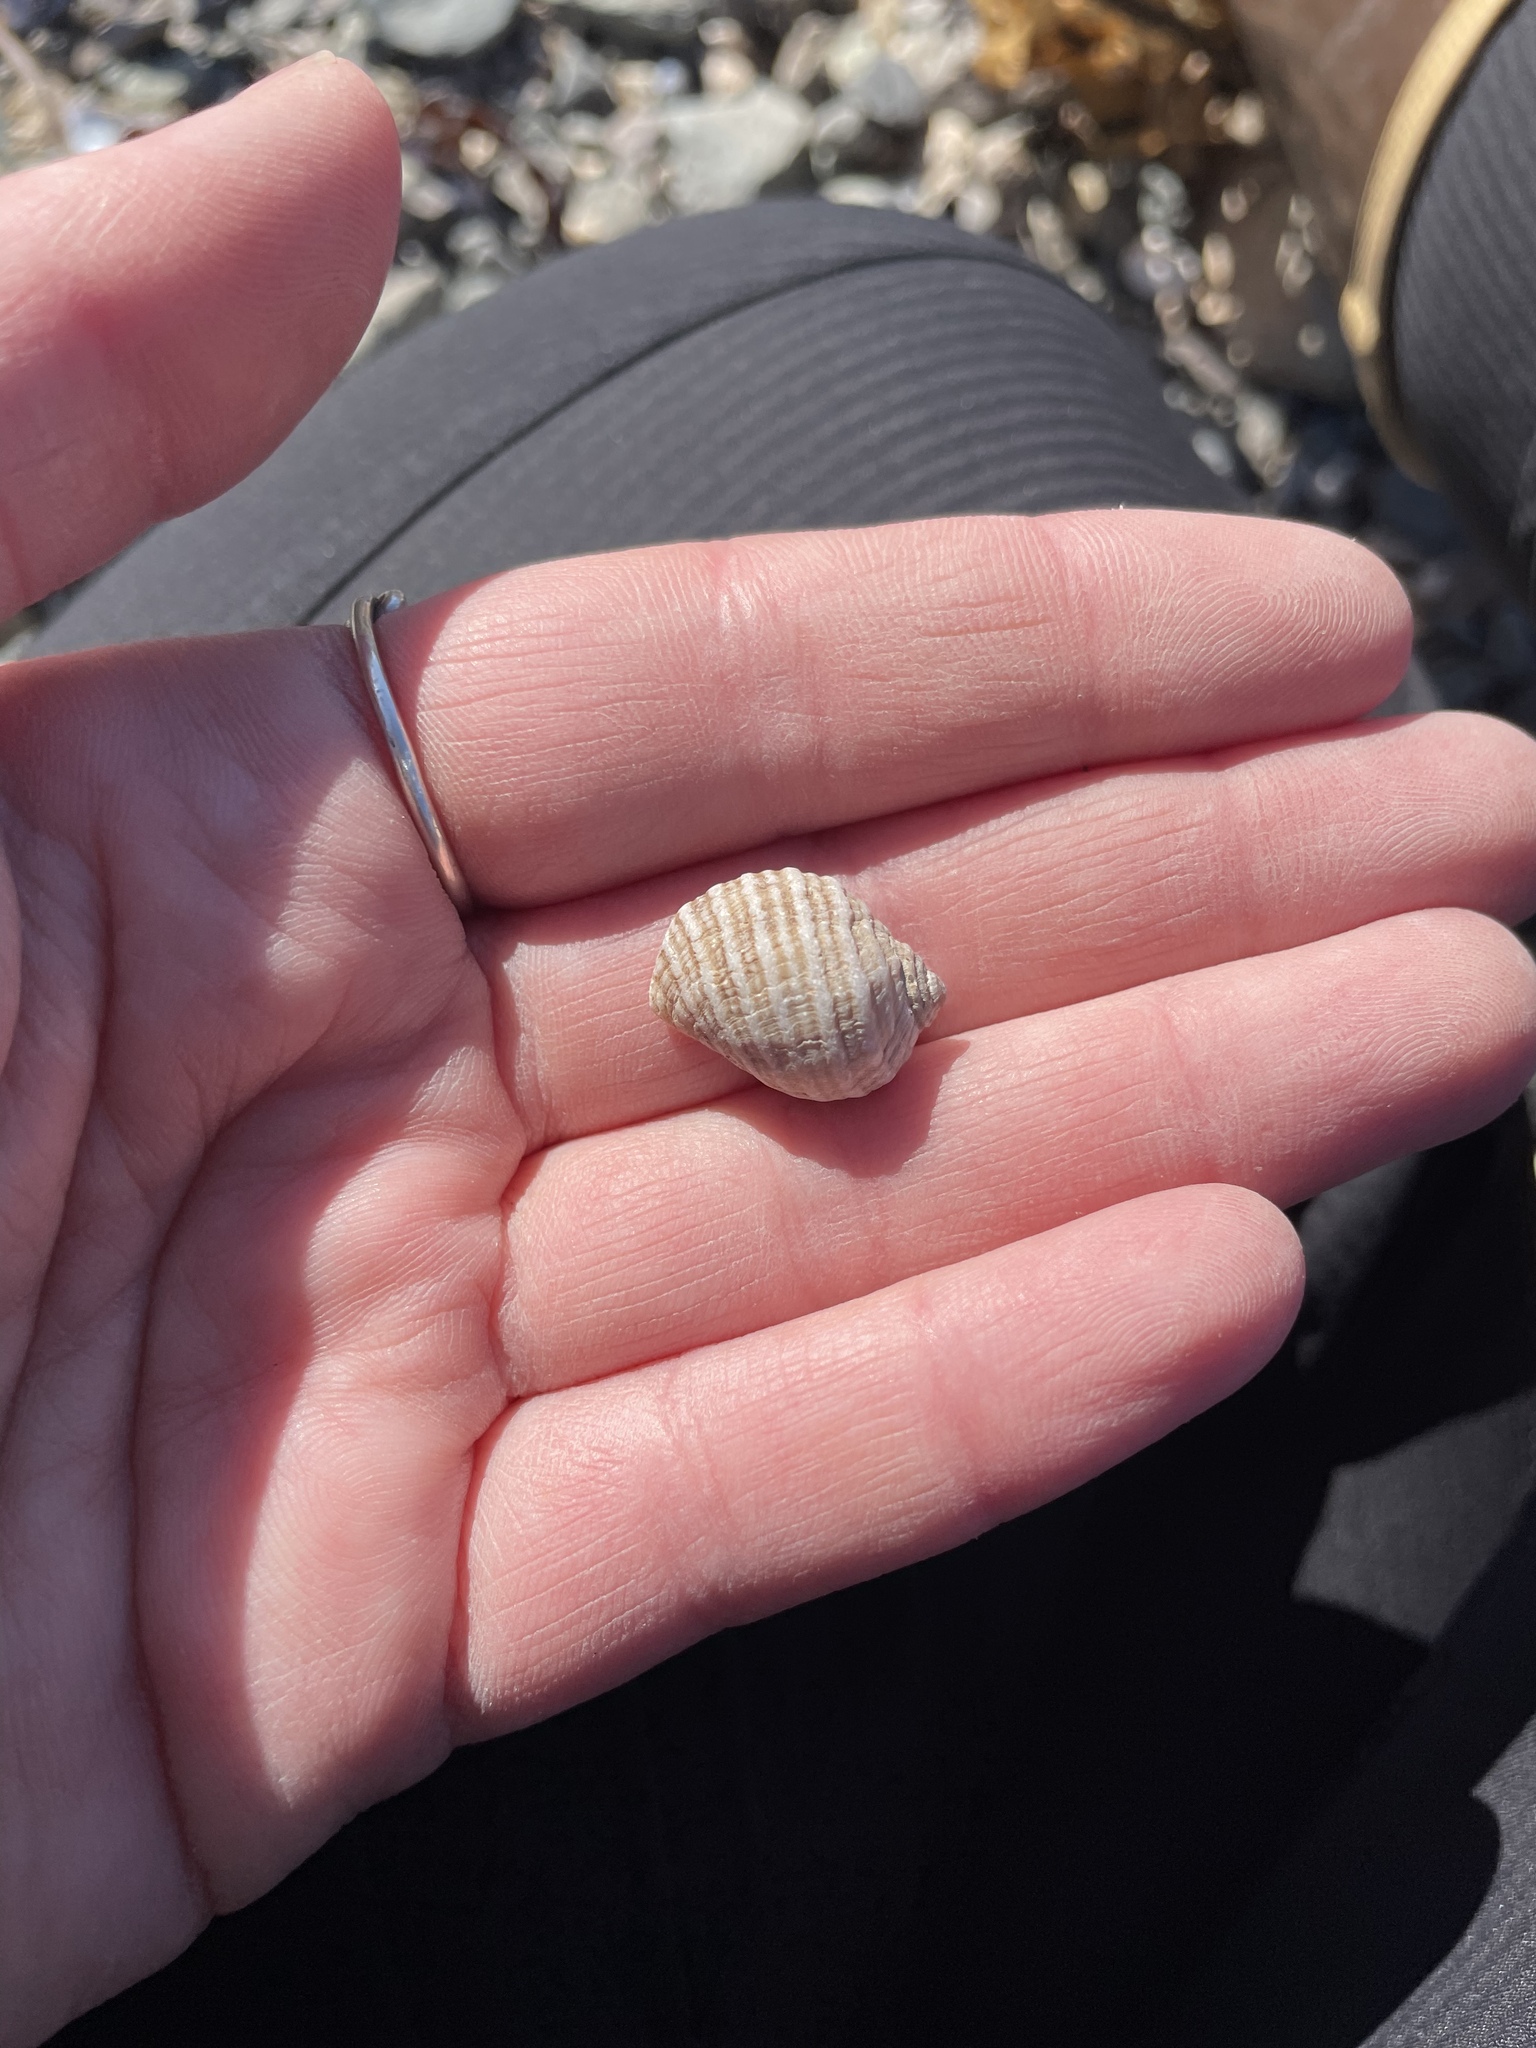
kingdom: Animalia
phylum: Mollusca
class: Gastropoda
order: Neogastropoda
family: Muricidae
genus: Nucella
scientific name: Nucella lapillus
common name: Dog whelk
